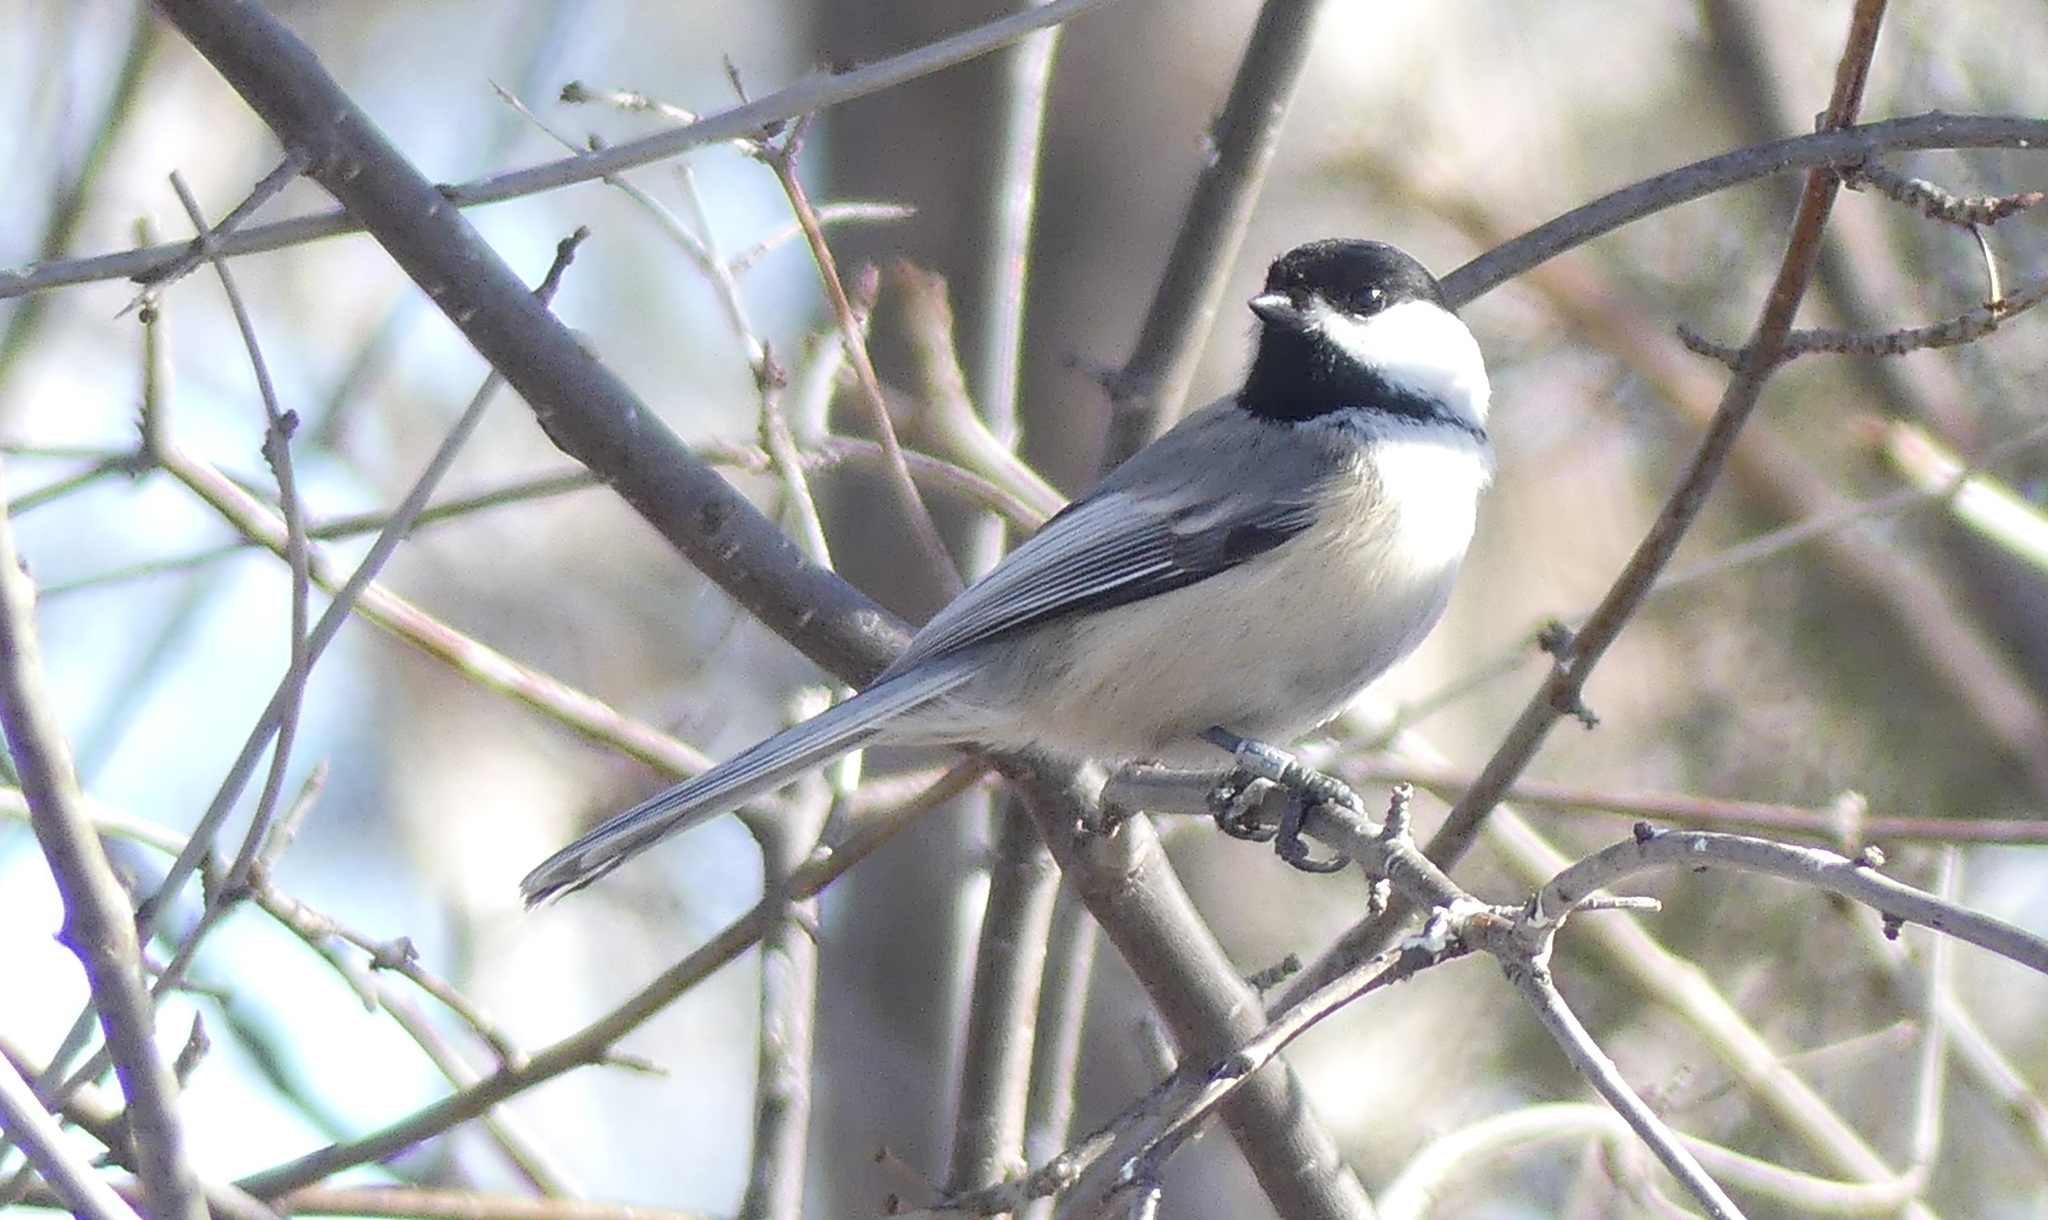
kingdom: Animalia
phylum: Chordata
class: Aves
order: Passeriformes
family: Paridae
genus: Poecile
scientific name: Poecile atricapillus
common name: Black-capped chickadee
